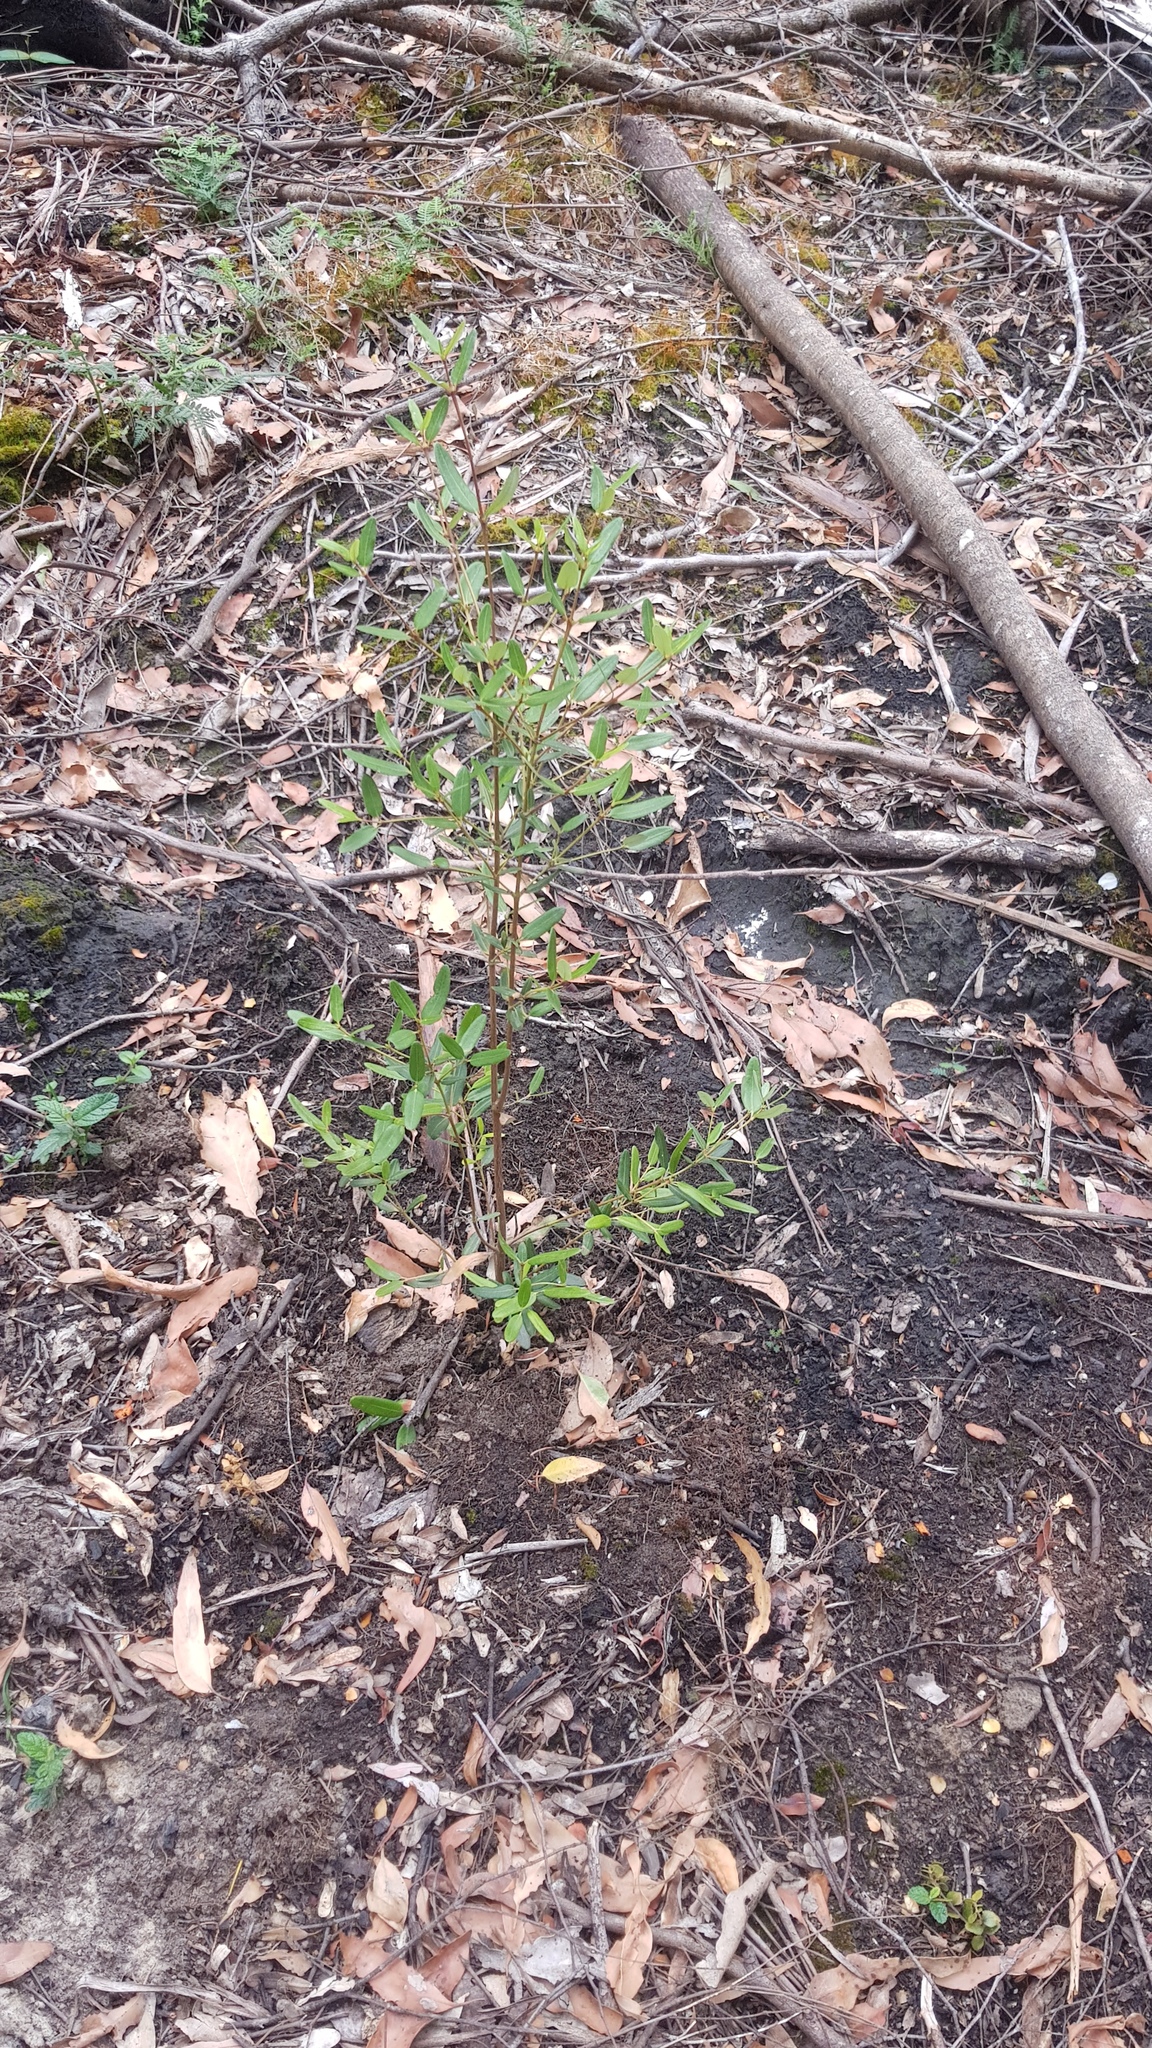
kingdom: Plantae
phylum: Tracheophyta
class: Magnoliopsida
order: Oxalidales
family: Cunoniaceae
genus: Eucryphia
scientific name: Eucryphia lucida
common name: Leatherwood
